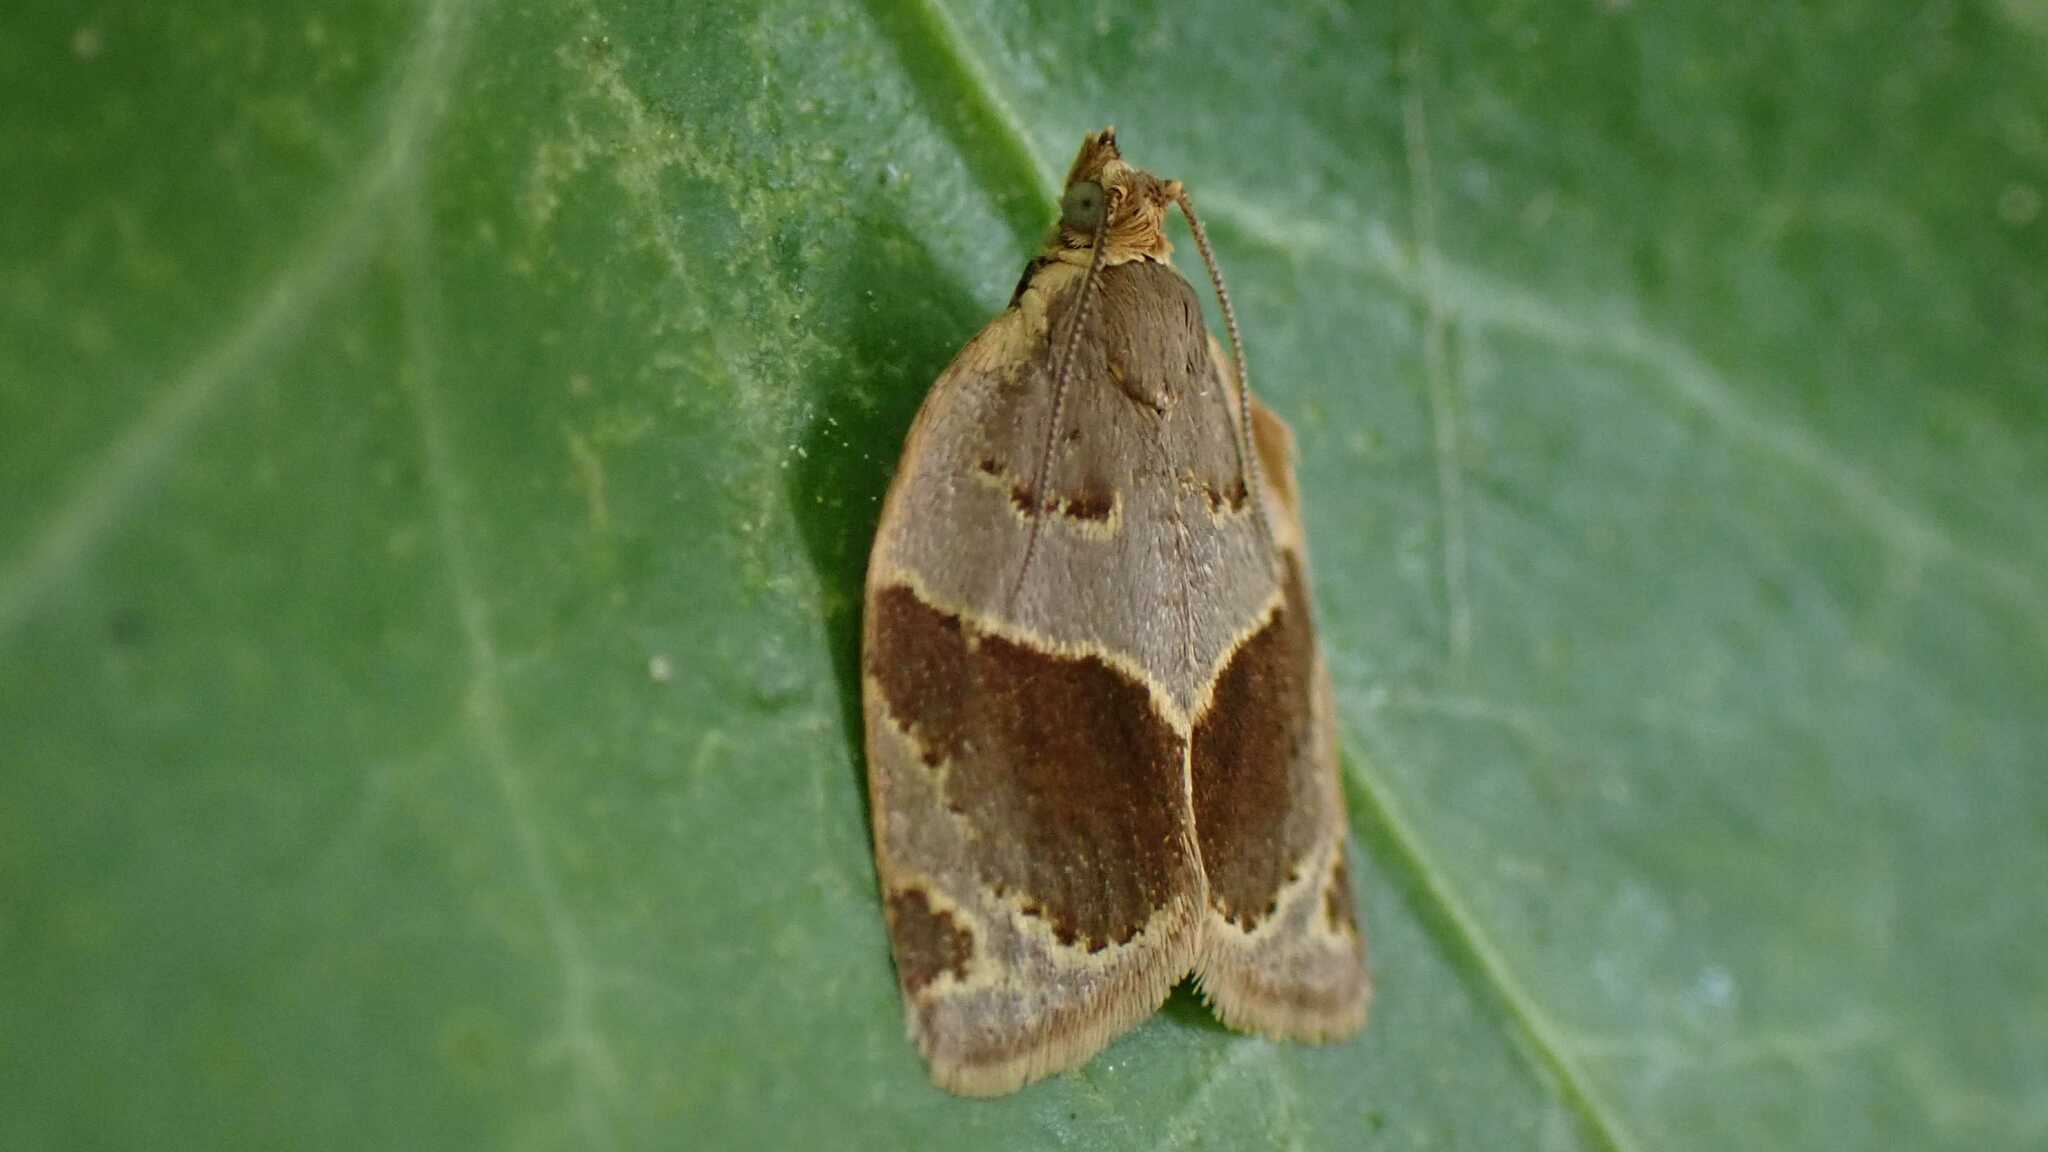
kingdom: Animalia
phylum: Arthropoda
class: Insecta
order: Lepidoptera
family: Tortricidae
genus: Clepsis
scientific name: Clepsis dumicolana
